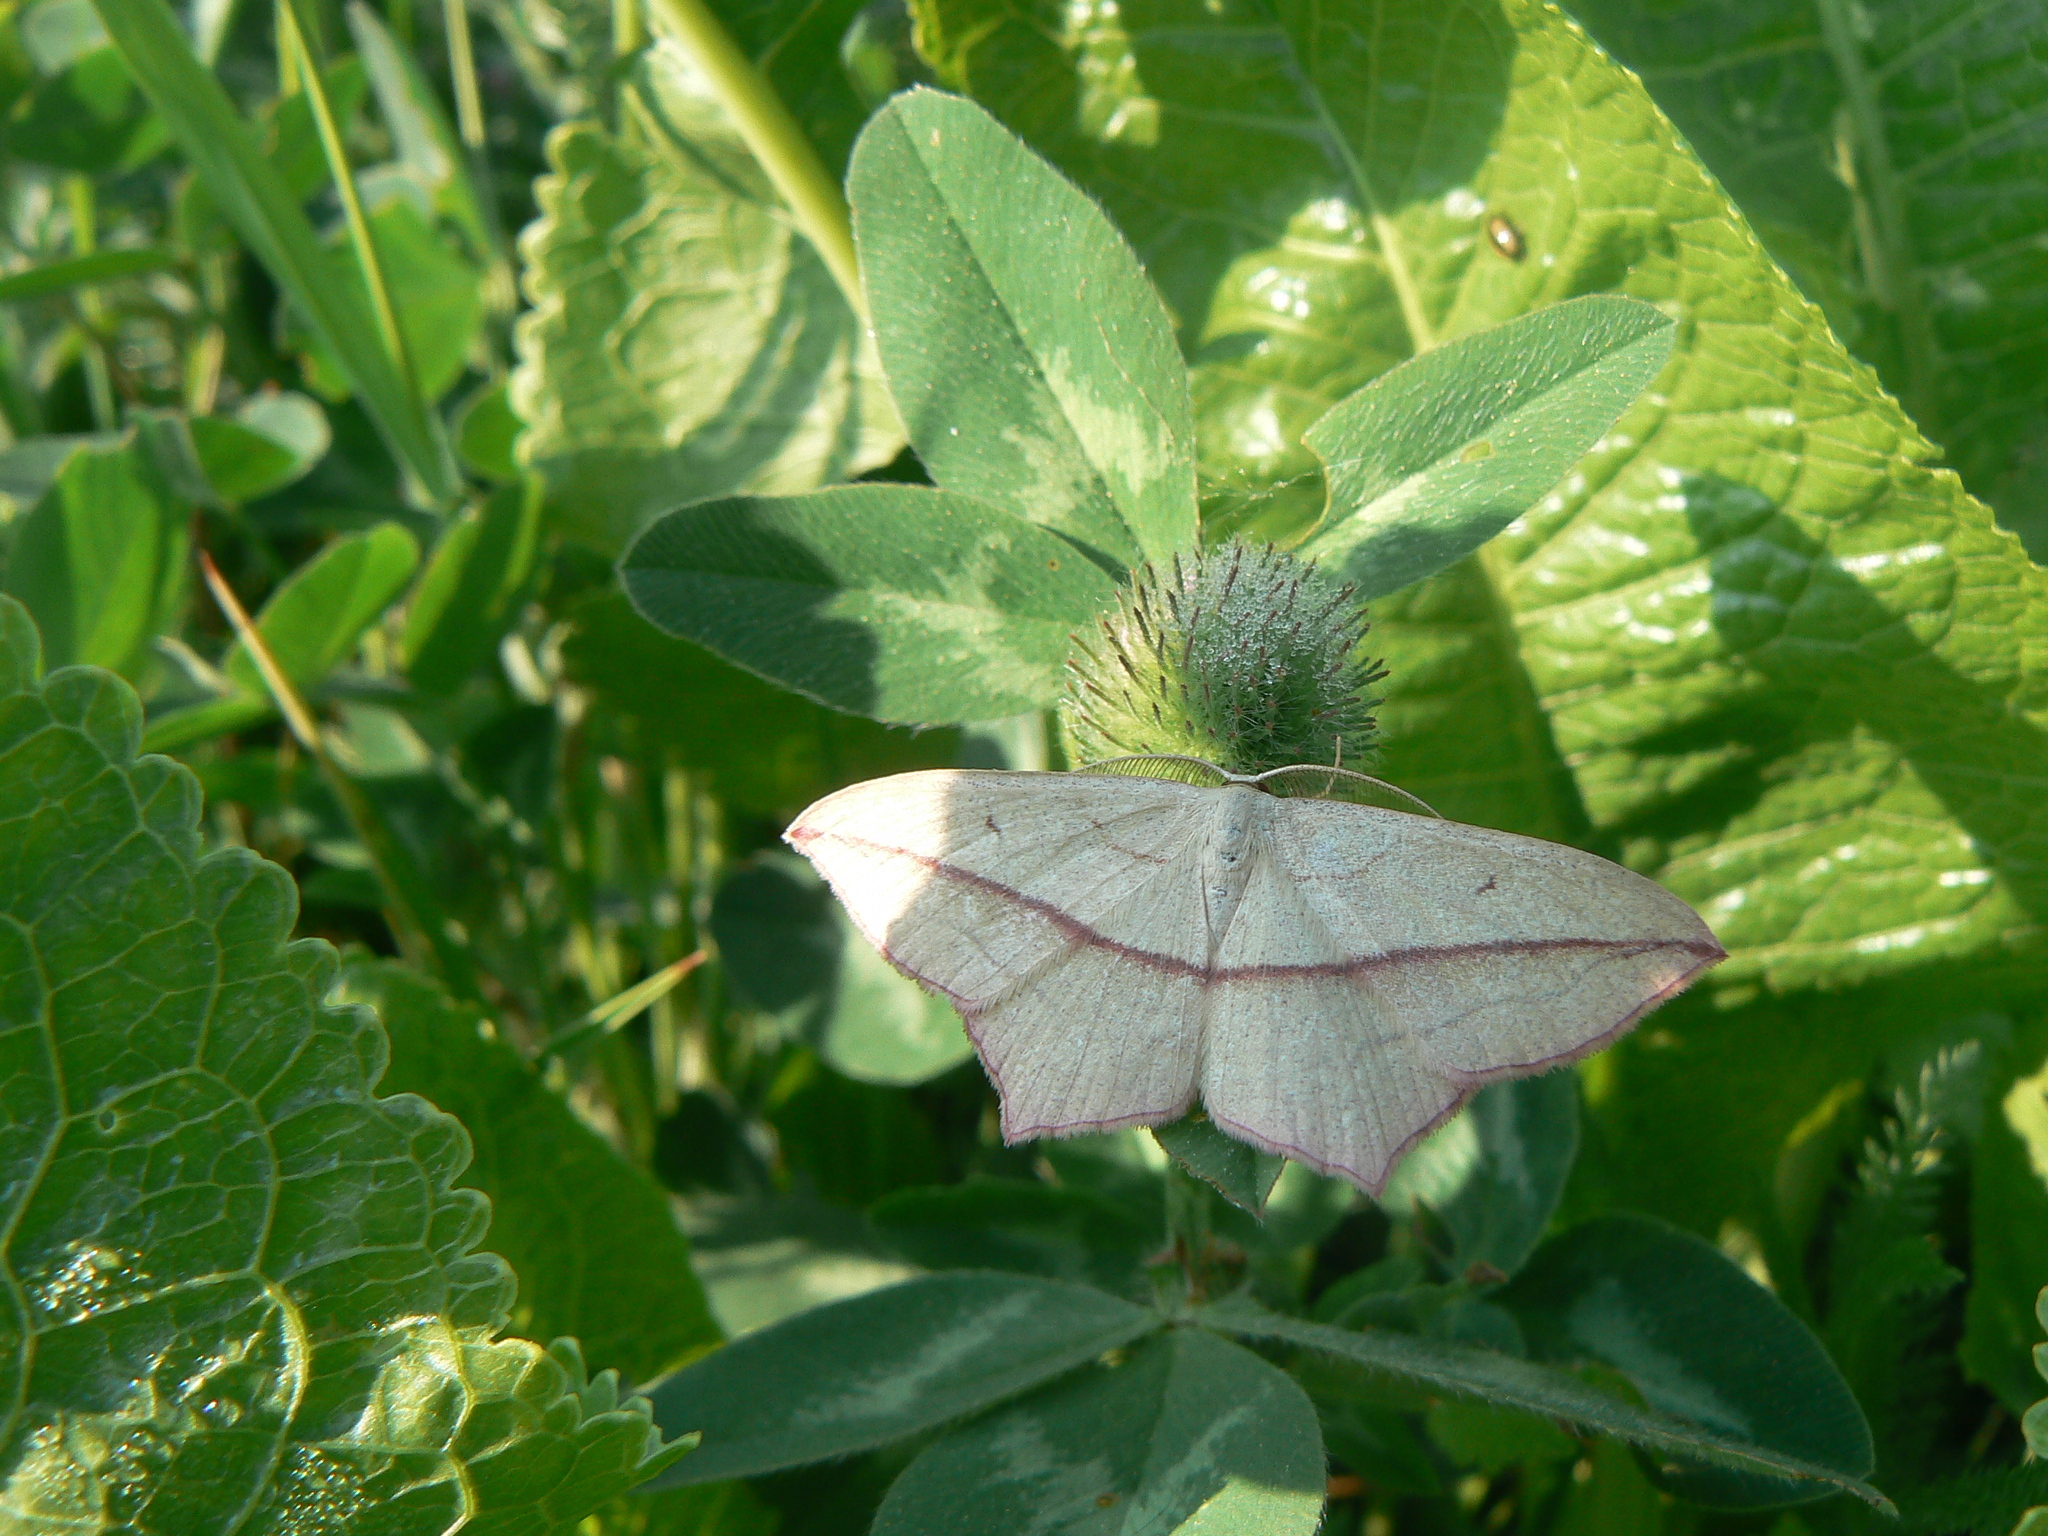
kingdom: Animalia
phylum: Arthropoda
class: Insecta
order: Lepidoptera
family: Geometridae
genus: Timandra
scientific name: Timandra comae
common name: Blood-vein
